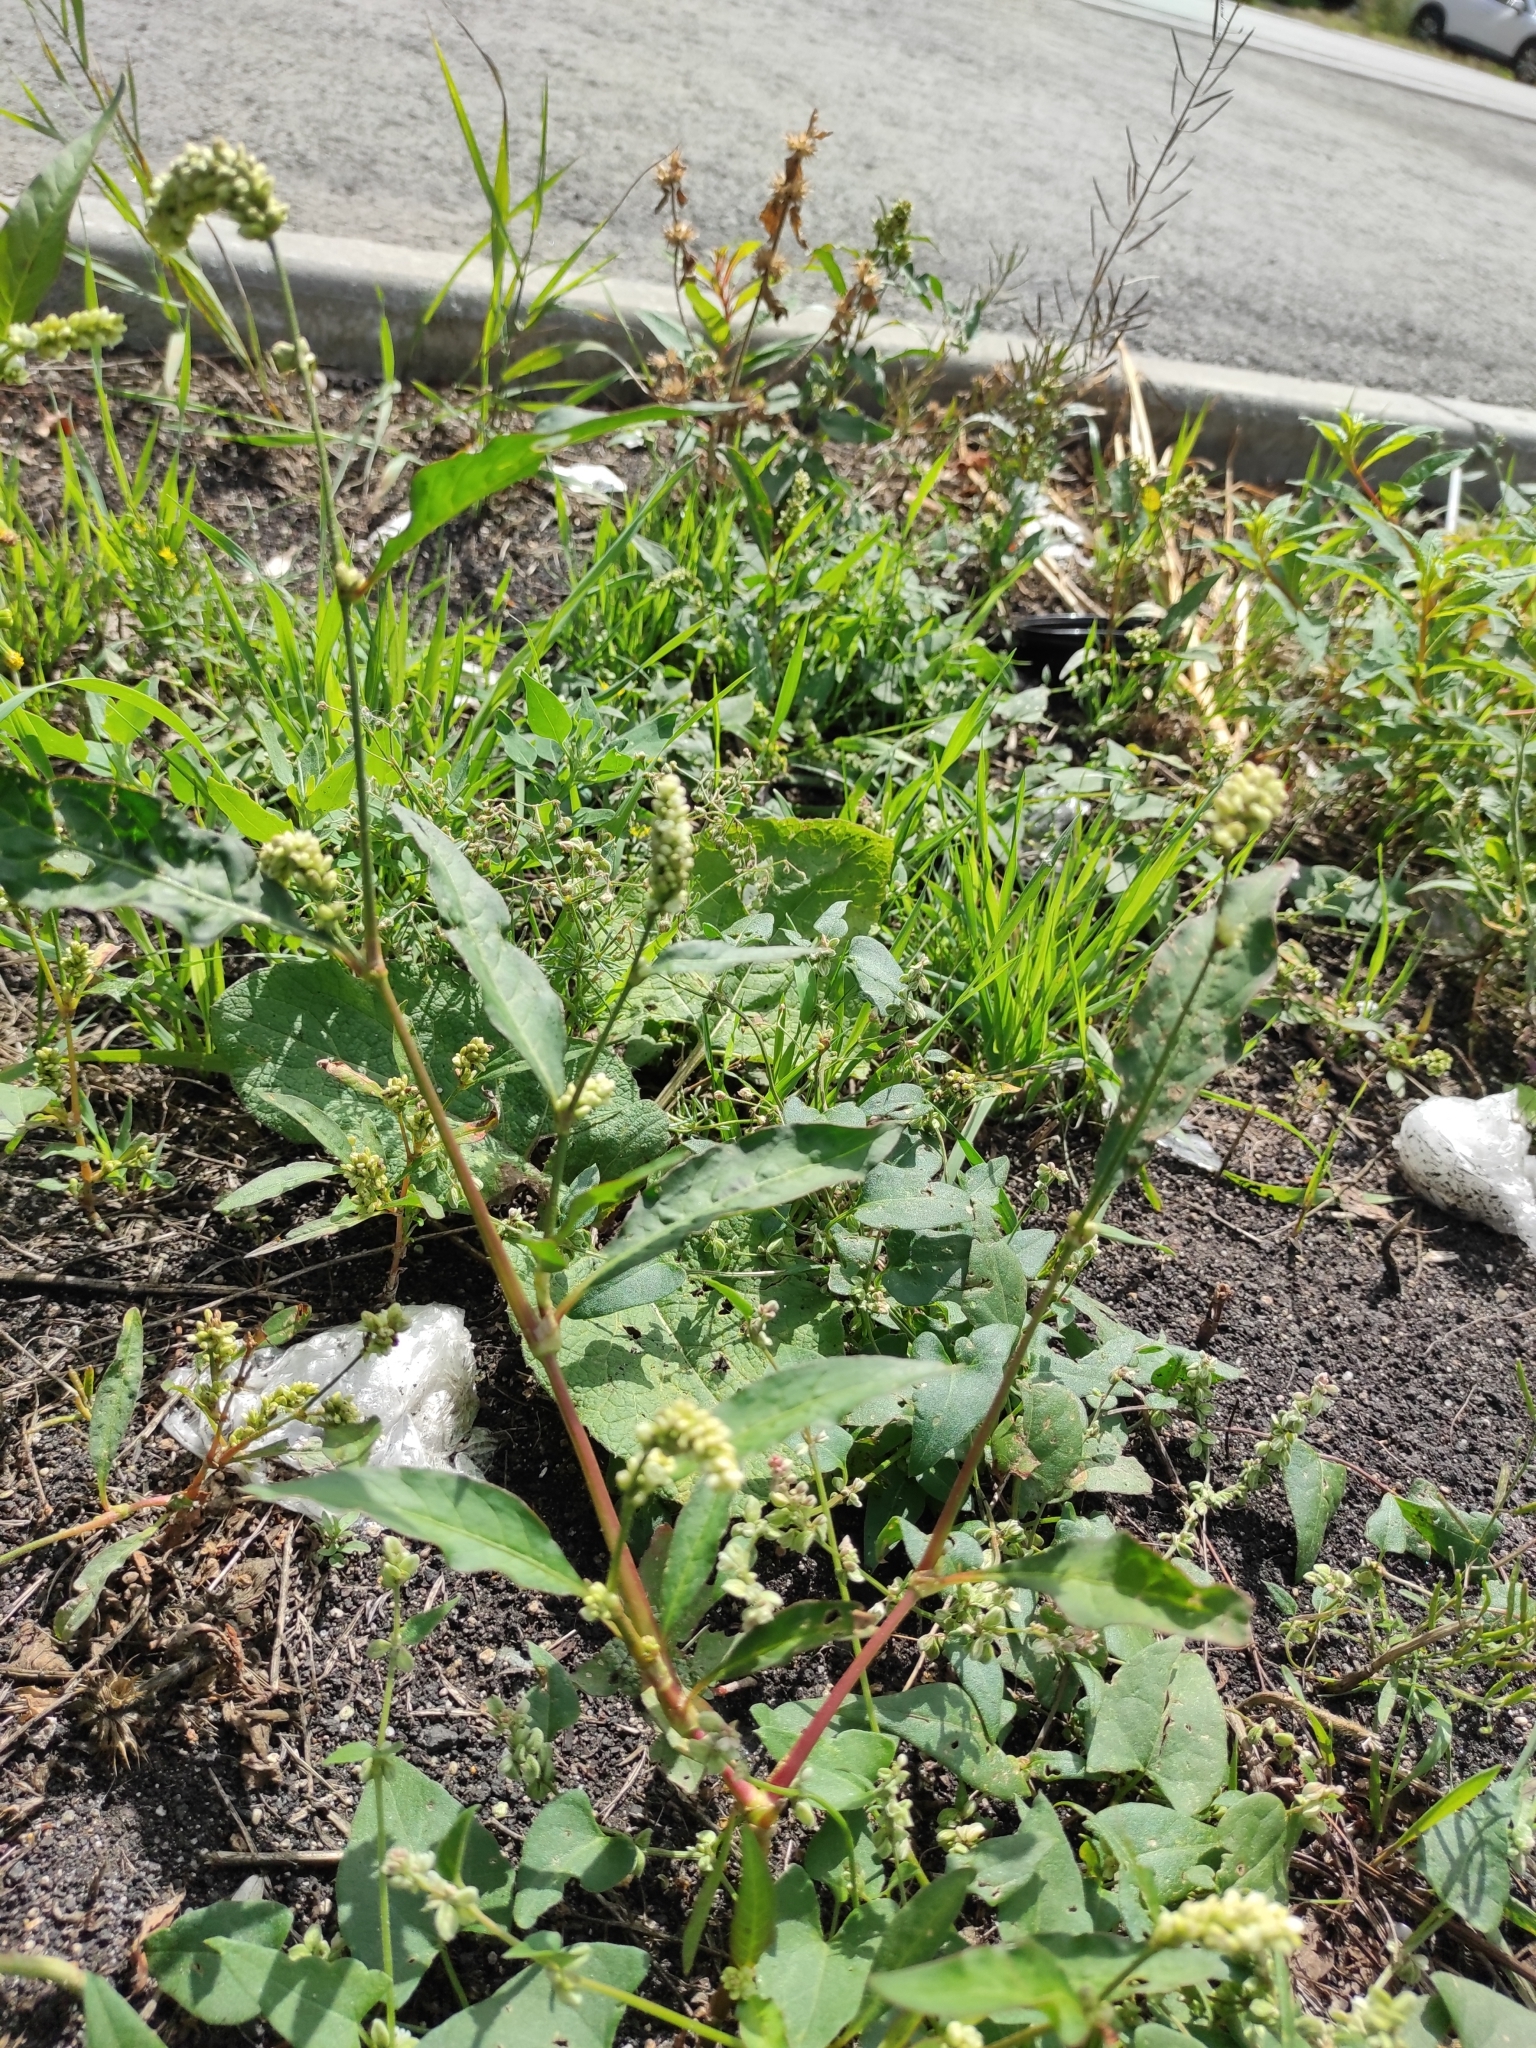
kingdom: Plantae
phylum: Tracheophyta
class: Magnoliopsida
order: Caryophyllales
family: Polygonaceae
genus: Persicaria
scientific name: Persicaria lapathifolia
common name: Curlytop knotweed
